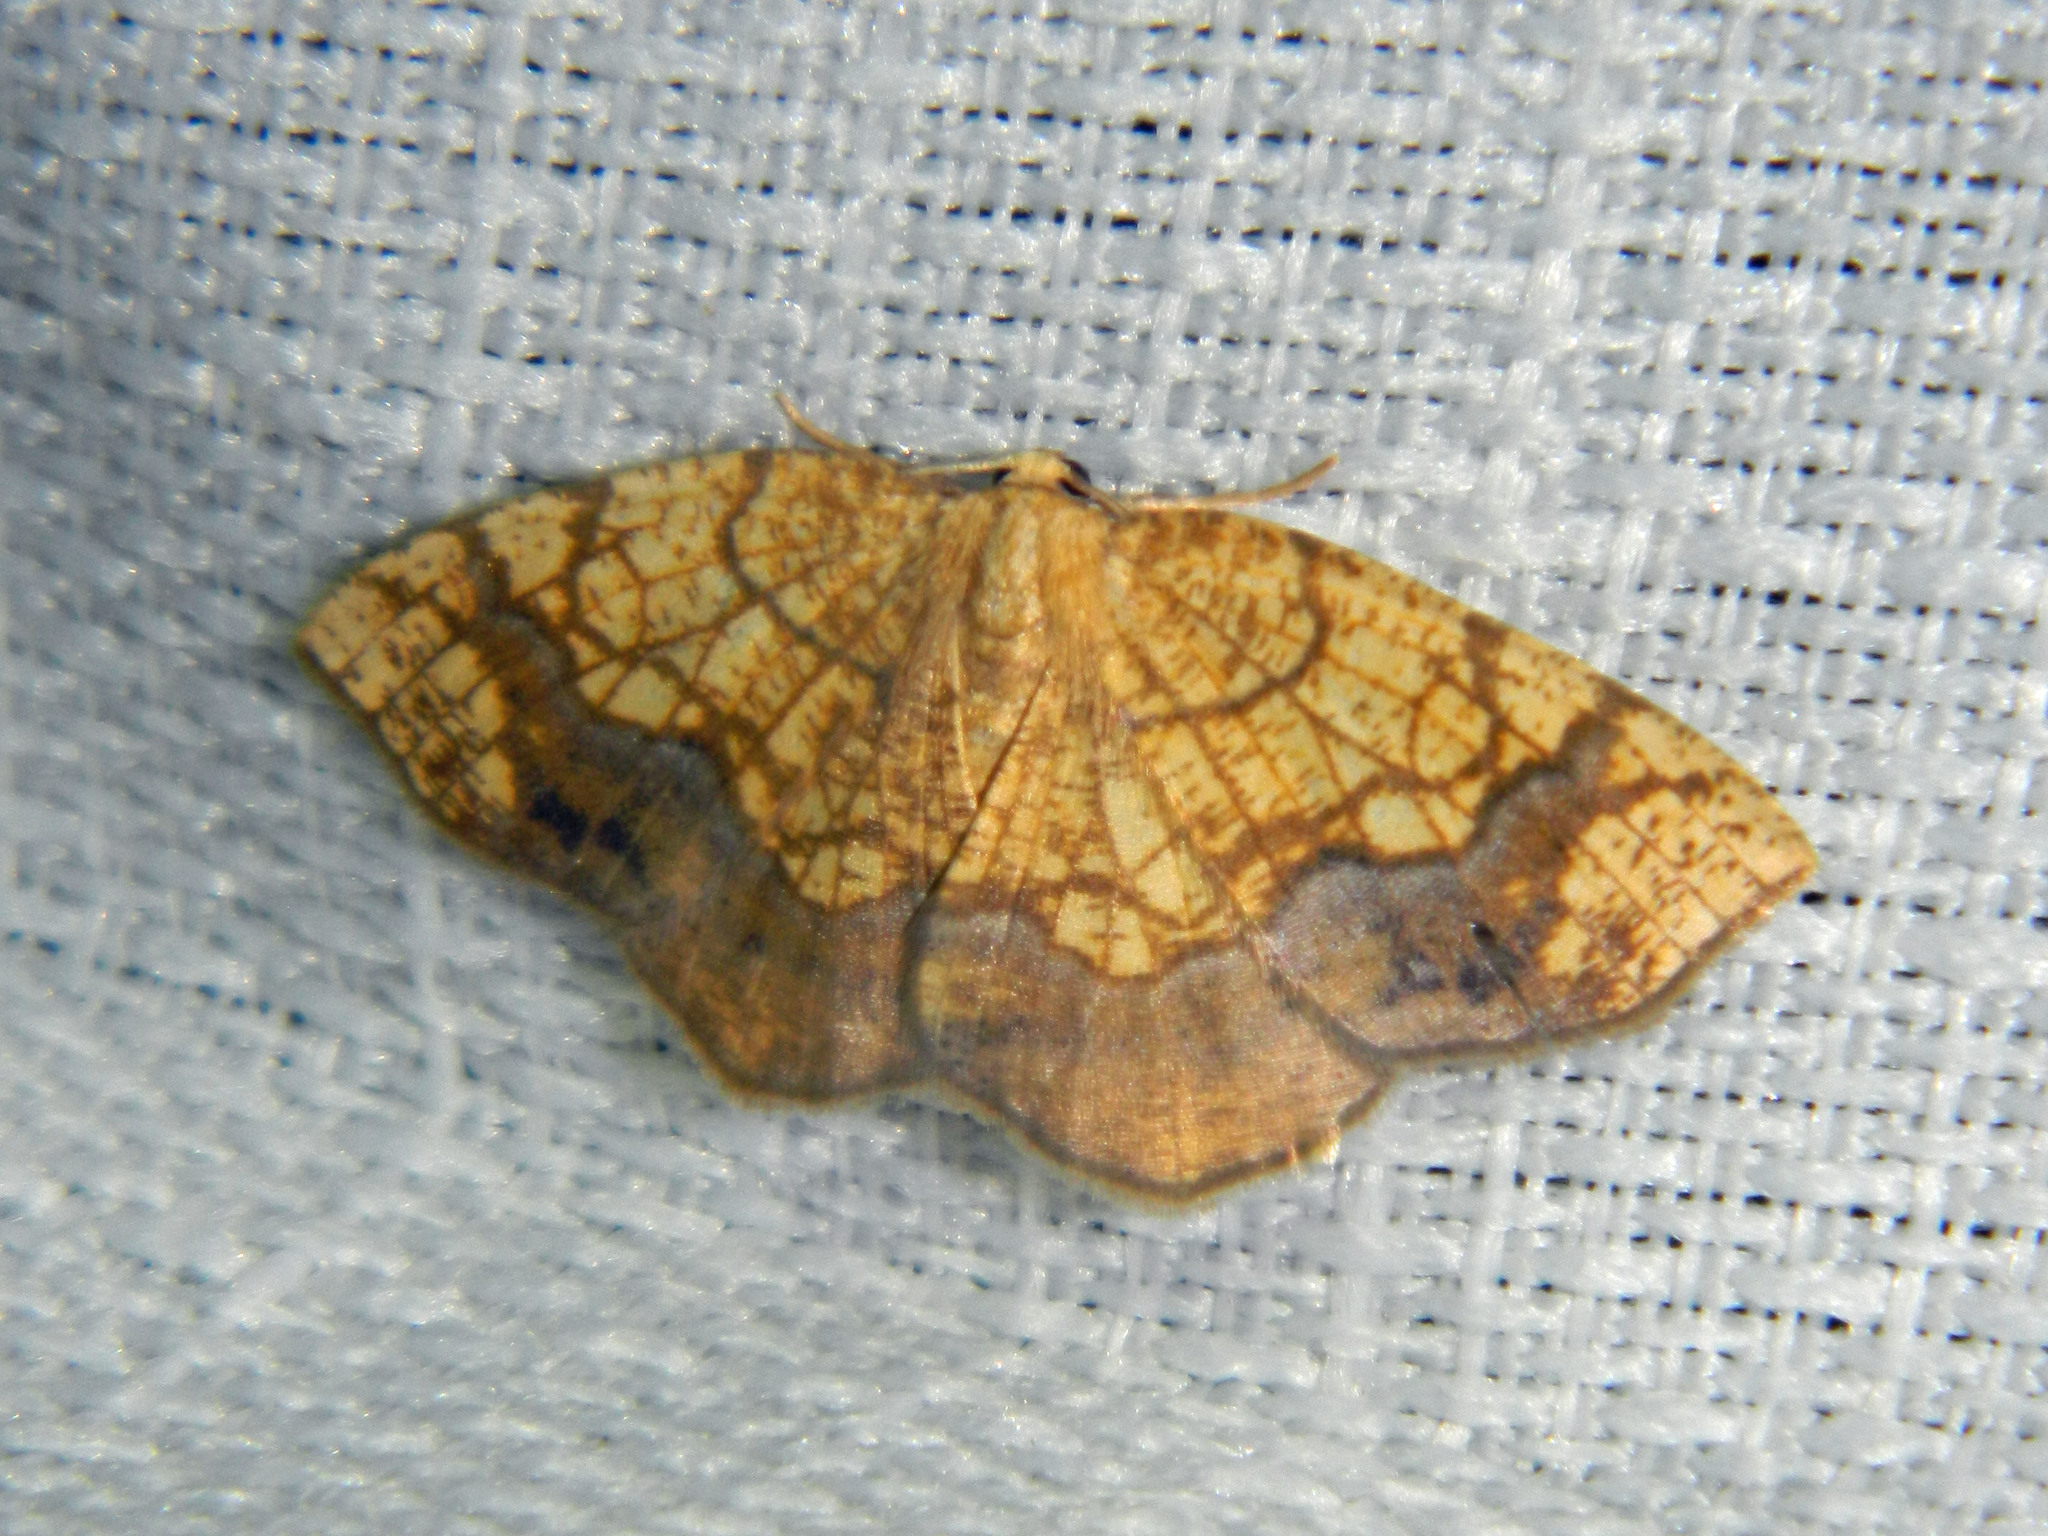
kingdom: Animalia
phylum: Arthropoda
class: Insecta
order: Lepidoptera
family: Geometridae
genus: Nematocampa
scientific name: Nematocampa resistaria
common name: Horned spanworm moth
